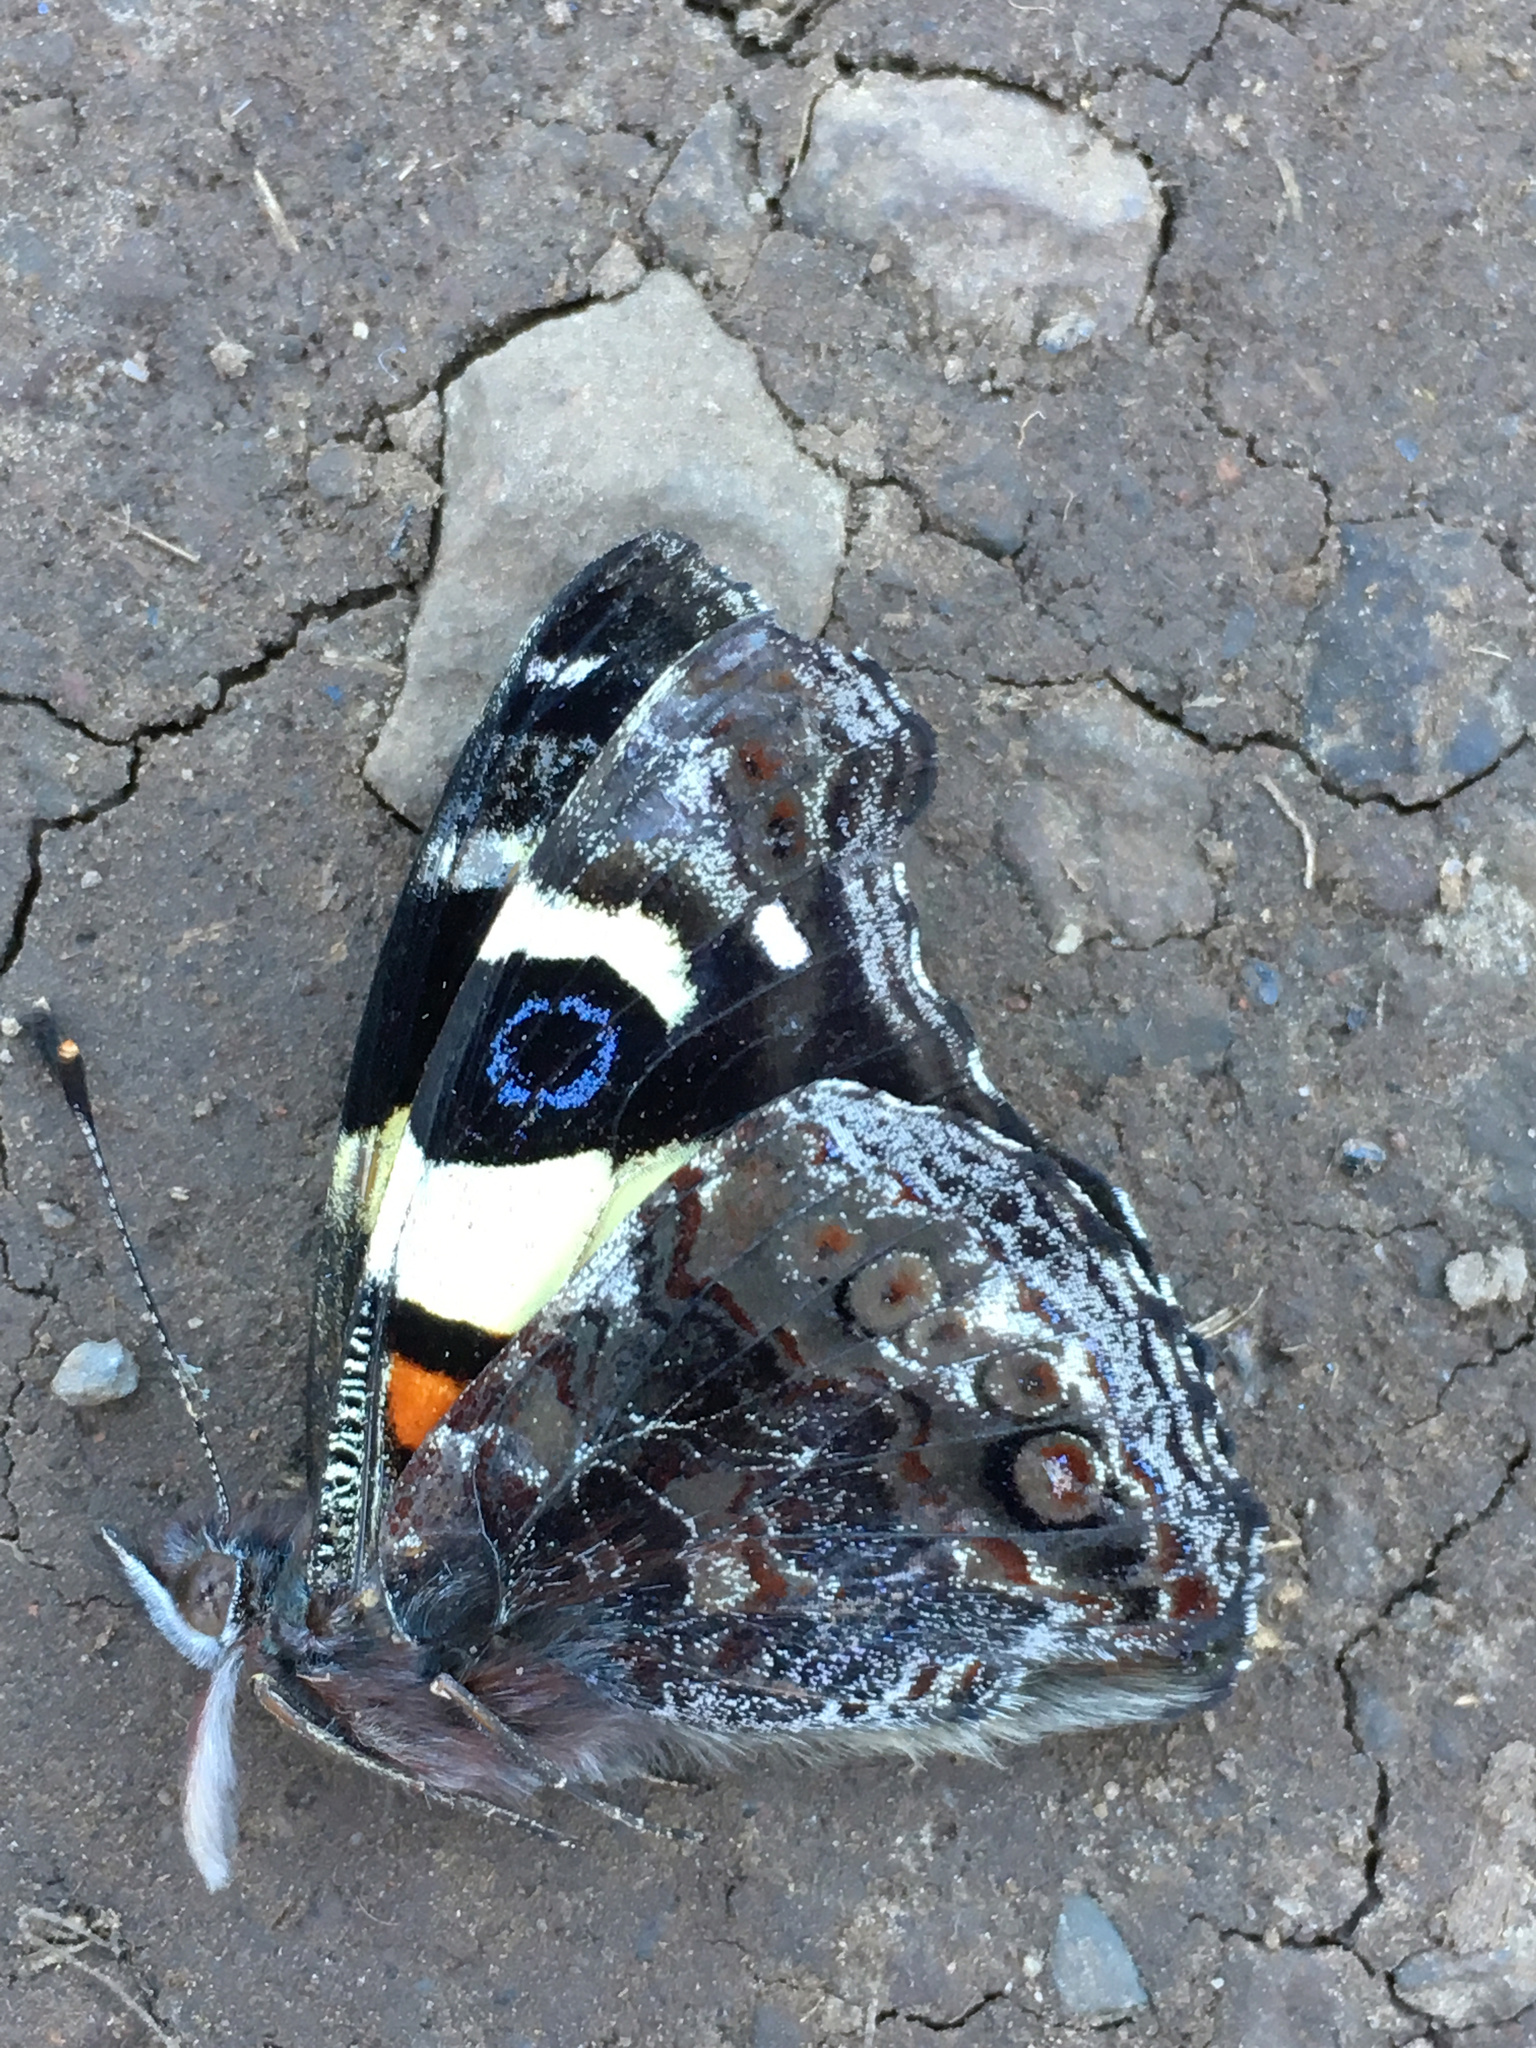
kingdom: Animalia
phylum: Arthropoda
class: Insecta
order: Lepidoptera
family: Nymphalidae
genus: Vanessa
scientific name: Vanessa itea
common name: Yellow admiral
